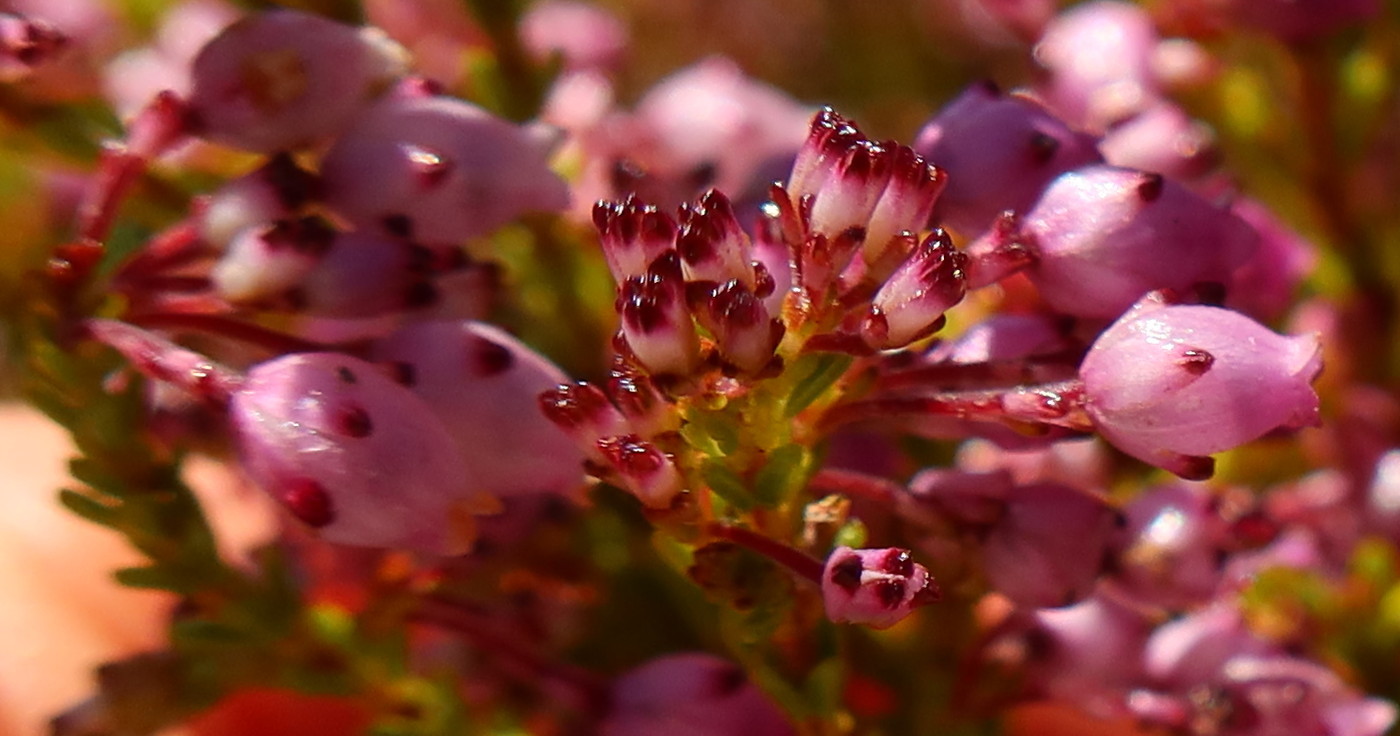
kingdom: Plantae
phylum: Tracheophyta
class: Magnoliopsida
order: Ericales
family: Ericaceae
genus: Erica
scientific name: Erica ferrea
